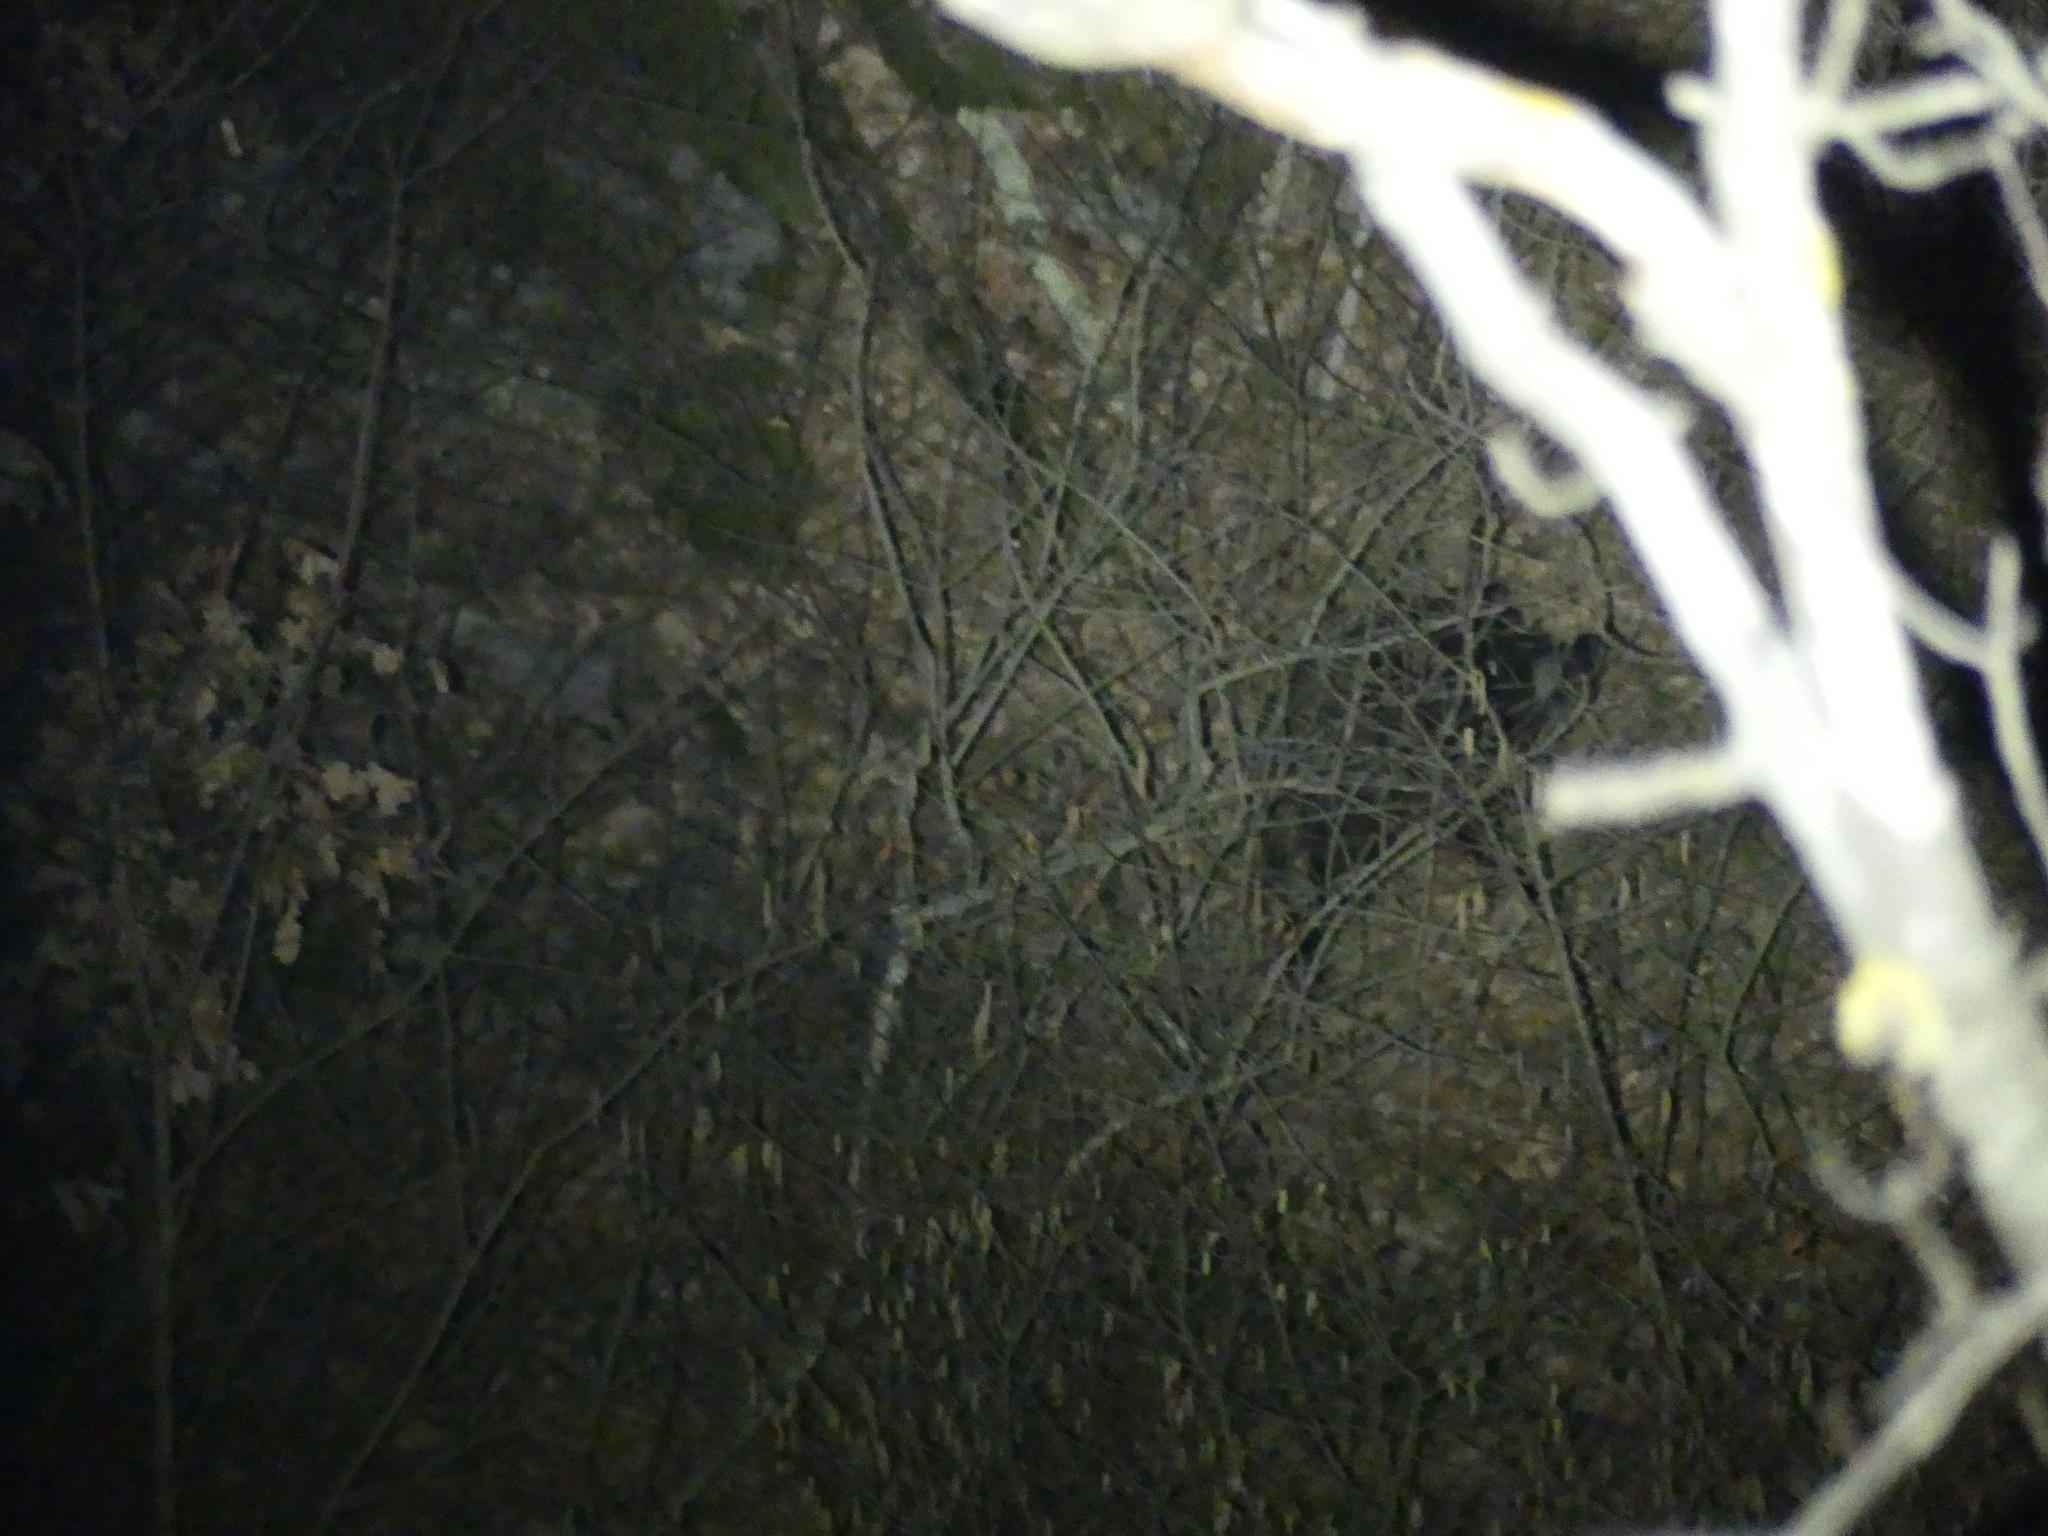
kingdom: Animalia
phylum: Chordata
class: Mammalia
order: Artiodactyla
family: Suidae
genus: Sus
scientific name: Sus scrofa
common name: Wild boar
